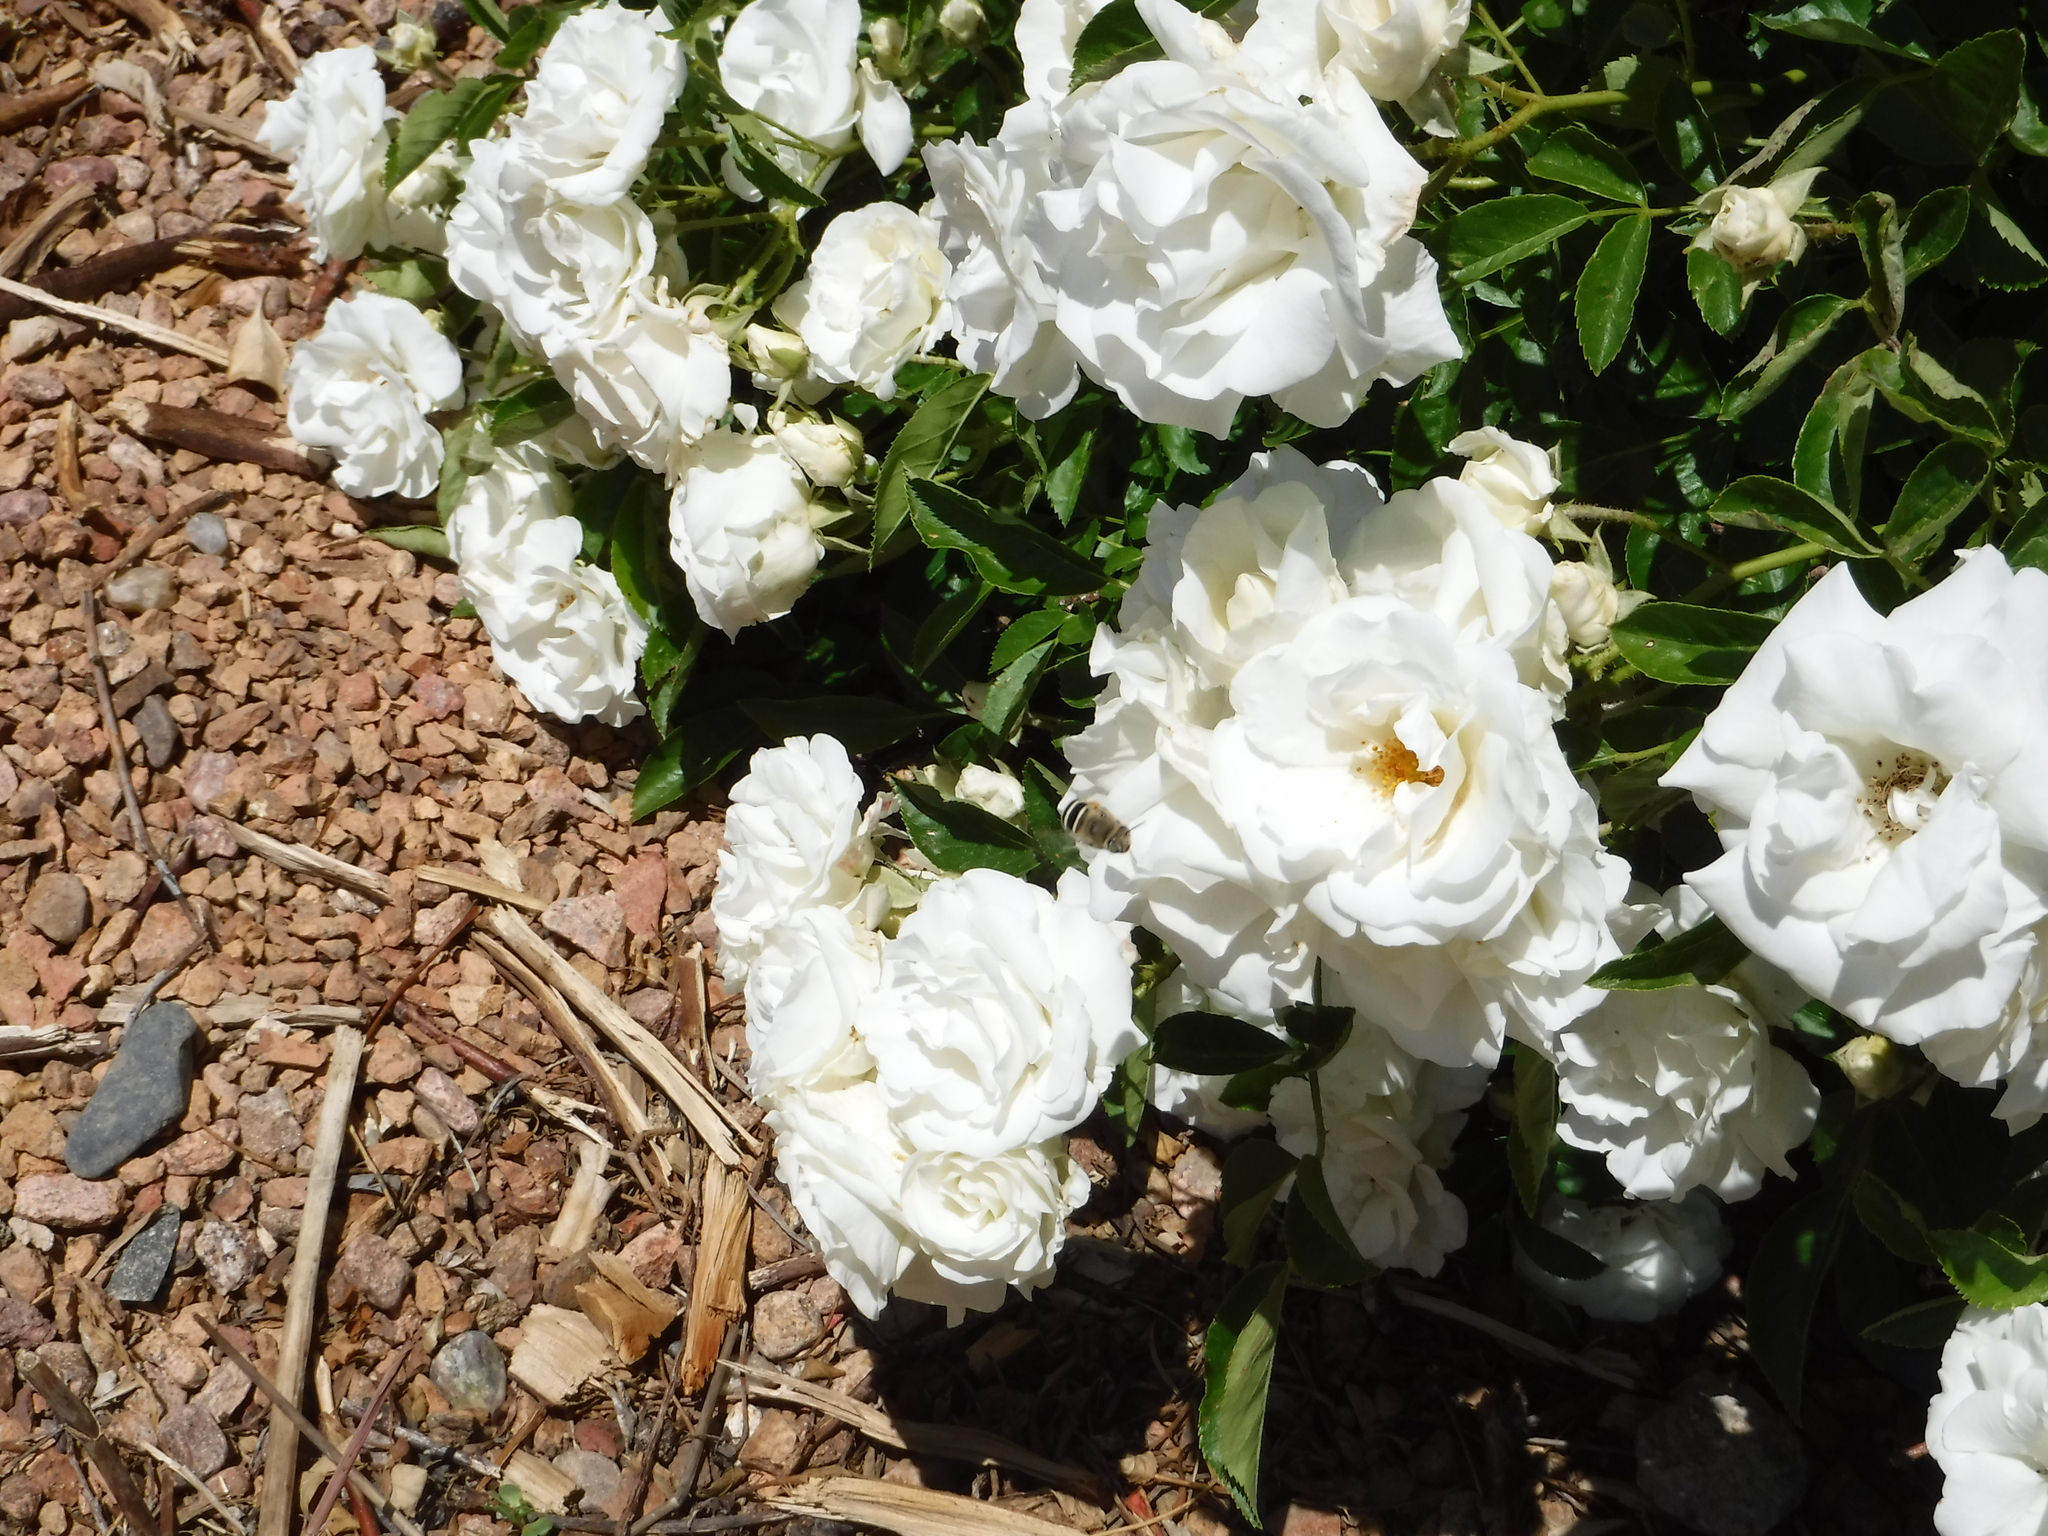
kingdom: Animalia
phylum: Arthropoda
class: Insecta
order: Hymenoptera
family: Apidae
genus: Anthophora
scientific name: Anthophora californica
